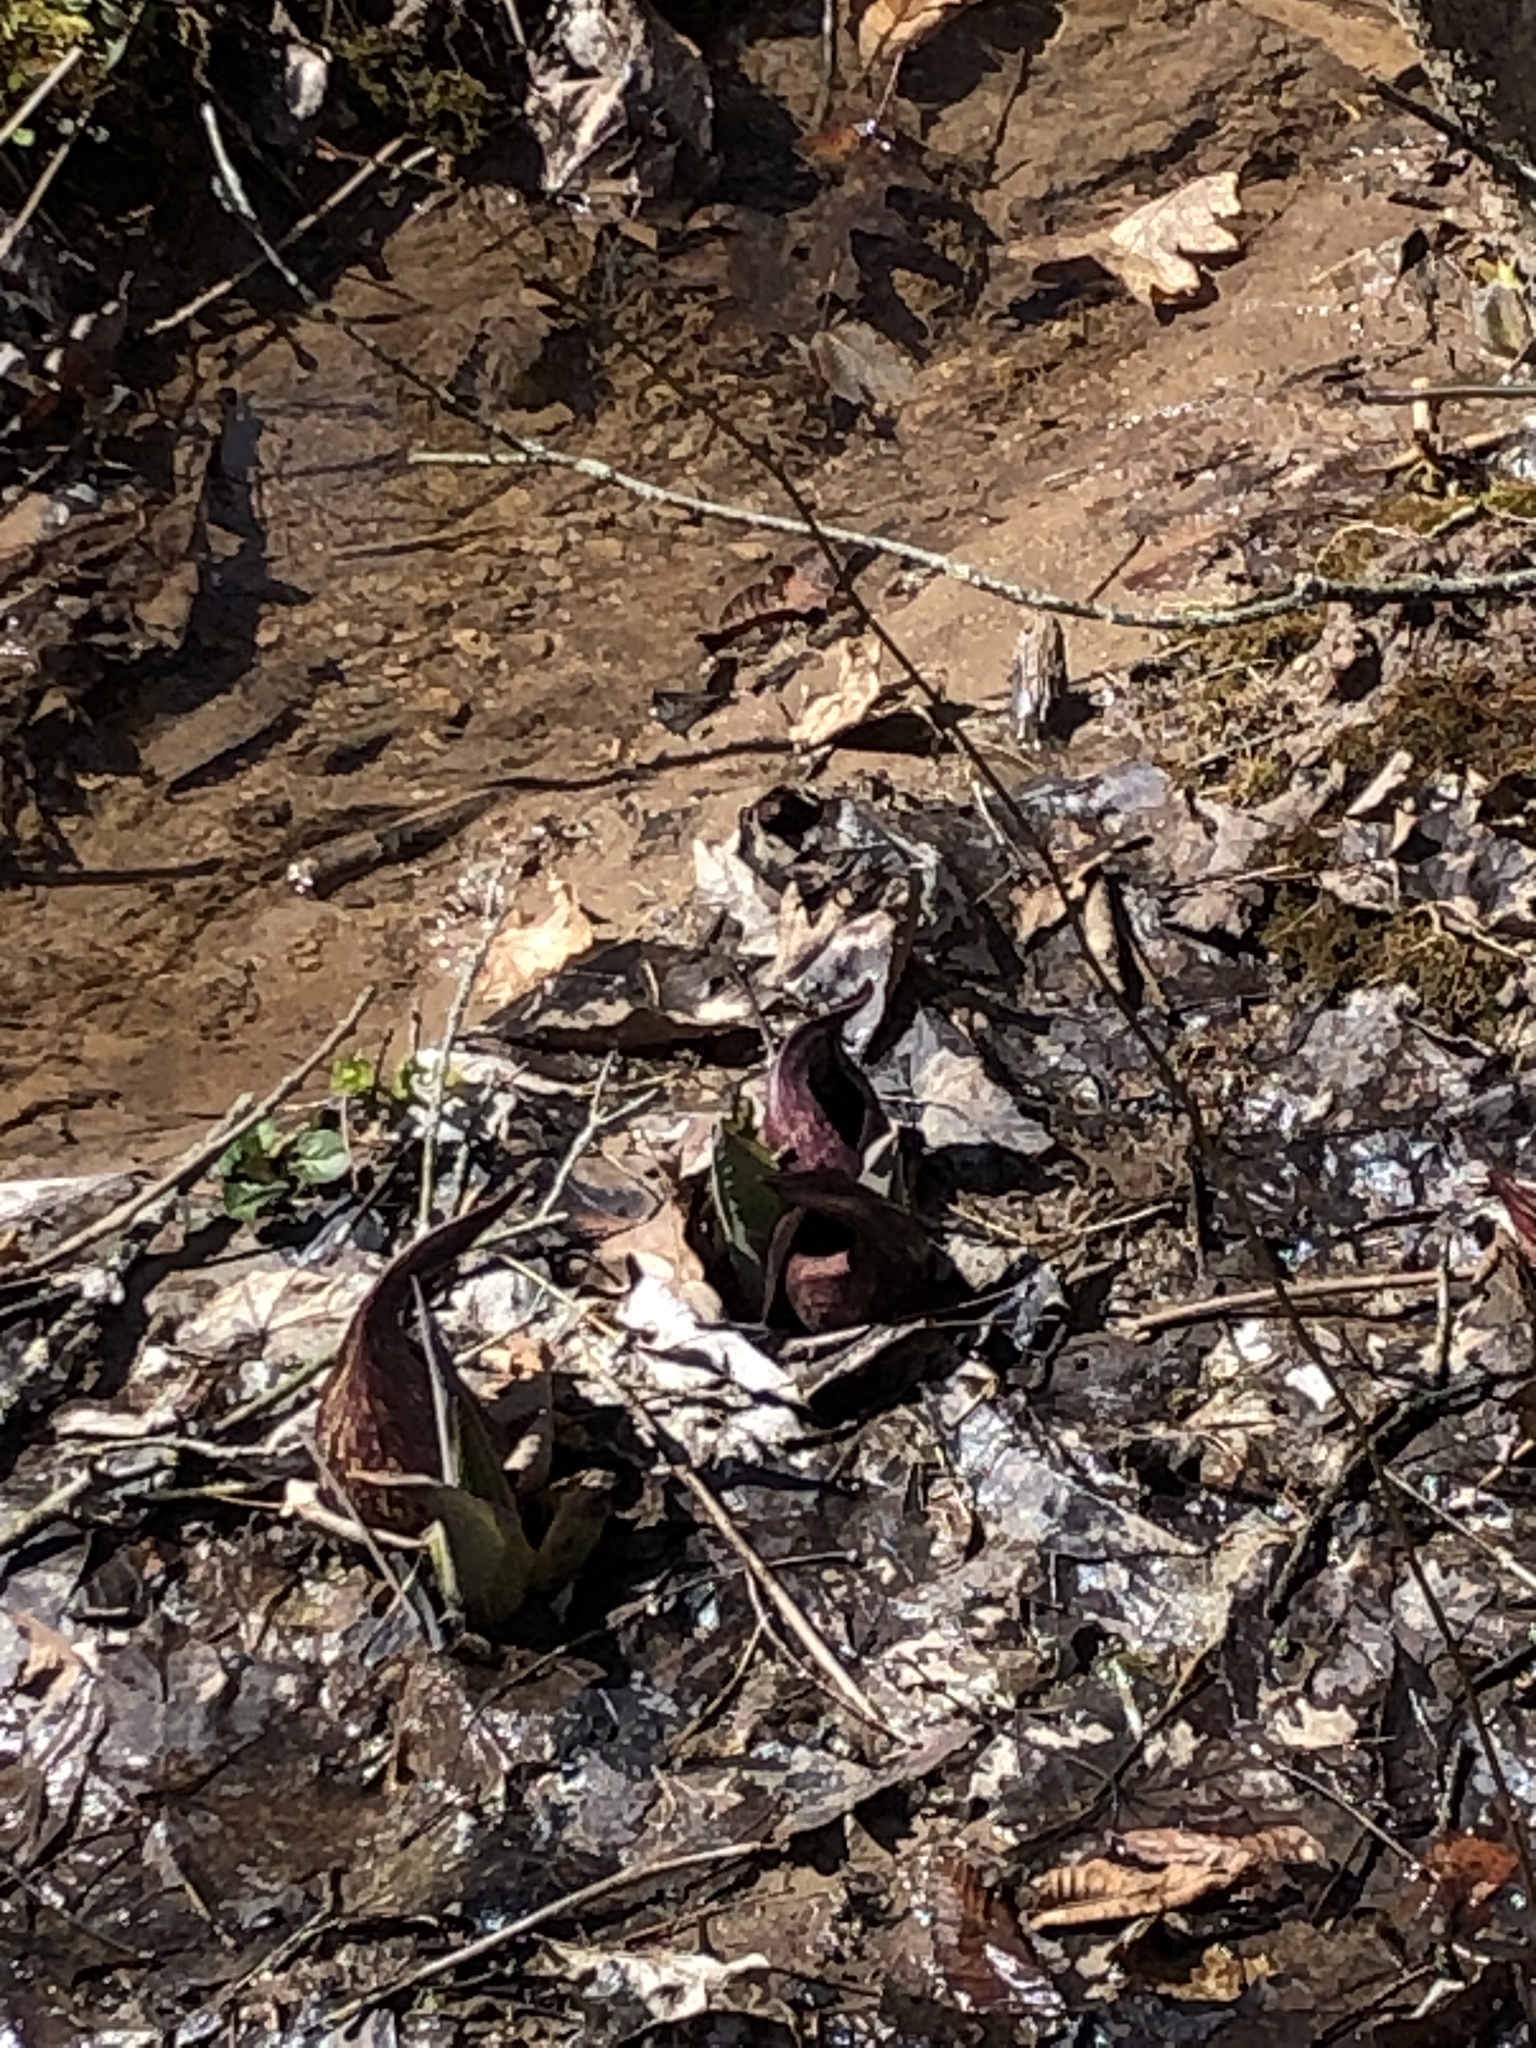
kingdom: Plantae
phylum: Tracheophyta
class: Liliopsida
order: Alismatales
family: Araceae
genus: Symplocarpus
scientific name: Symplocarpus foetidus
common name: Eastern skunk cabbage
